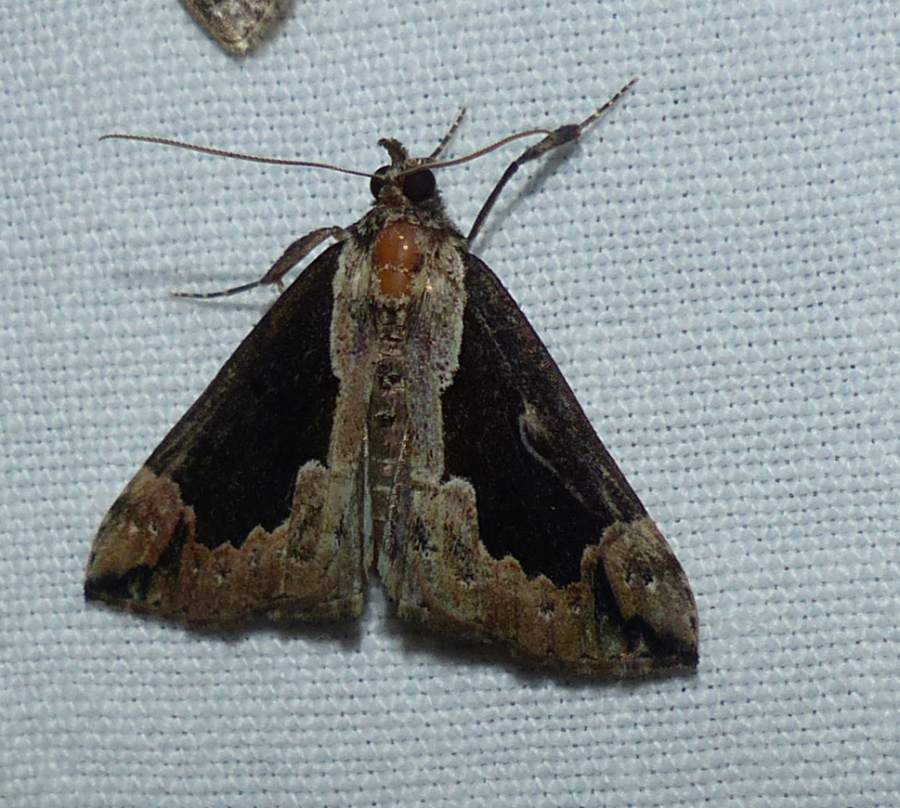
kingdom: Animalia
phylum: Arthropoda
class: Insecta
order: Lepidoptera
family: Erebidae
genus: Hypena
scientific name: Hypena baltimoralis
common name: Baltimore snout
